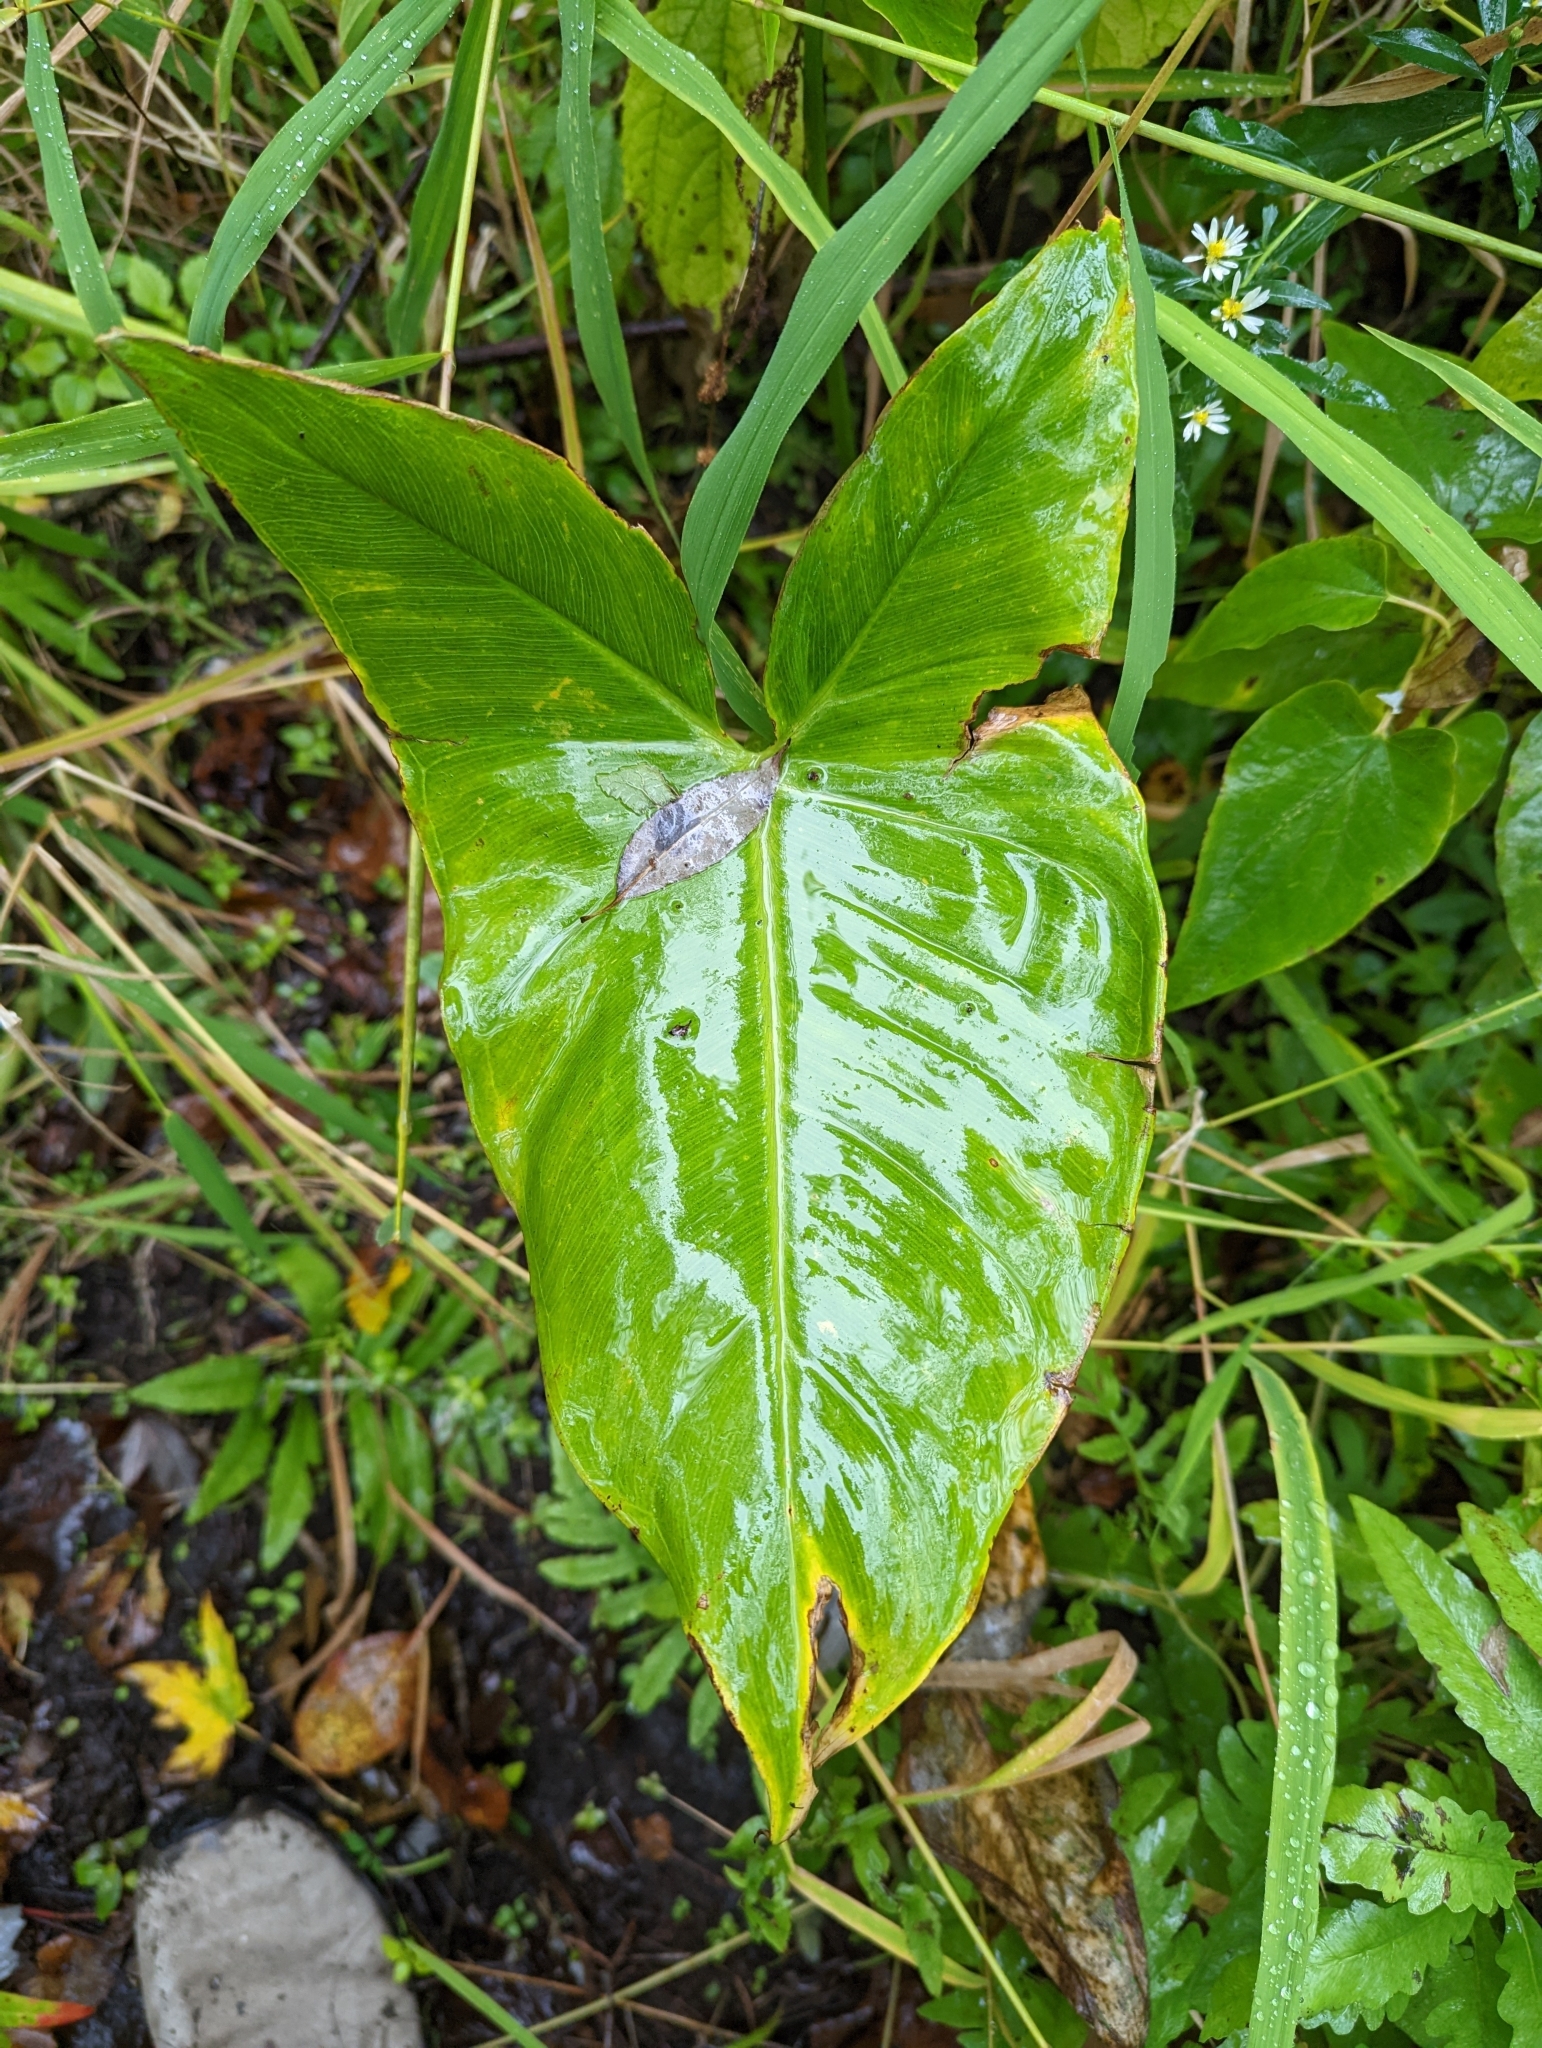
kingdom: Plantae
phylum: Tracheophyta
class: Liliopsida
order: Alismatales
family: Araceae
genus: Peltandra
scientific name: Peltandra virginica
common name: Arrow arum
